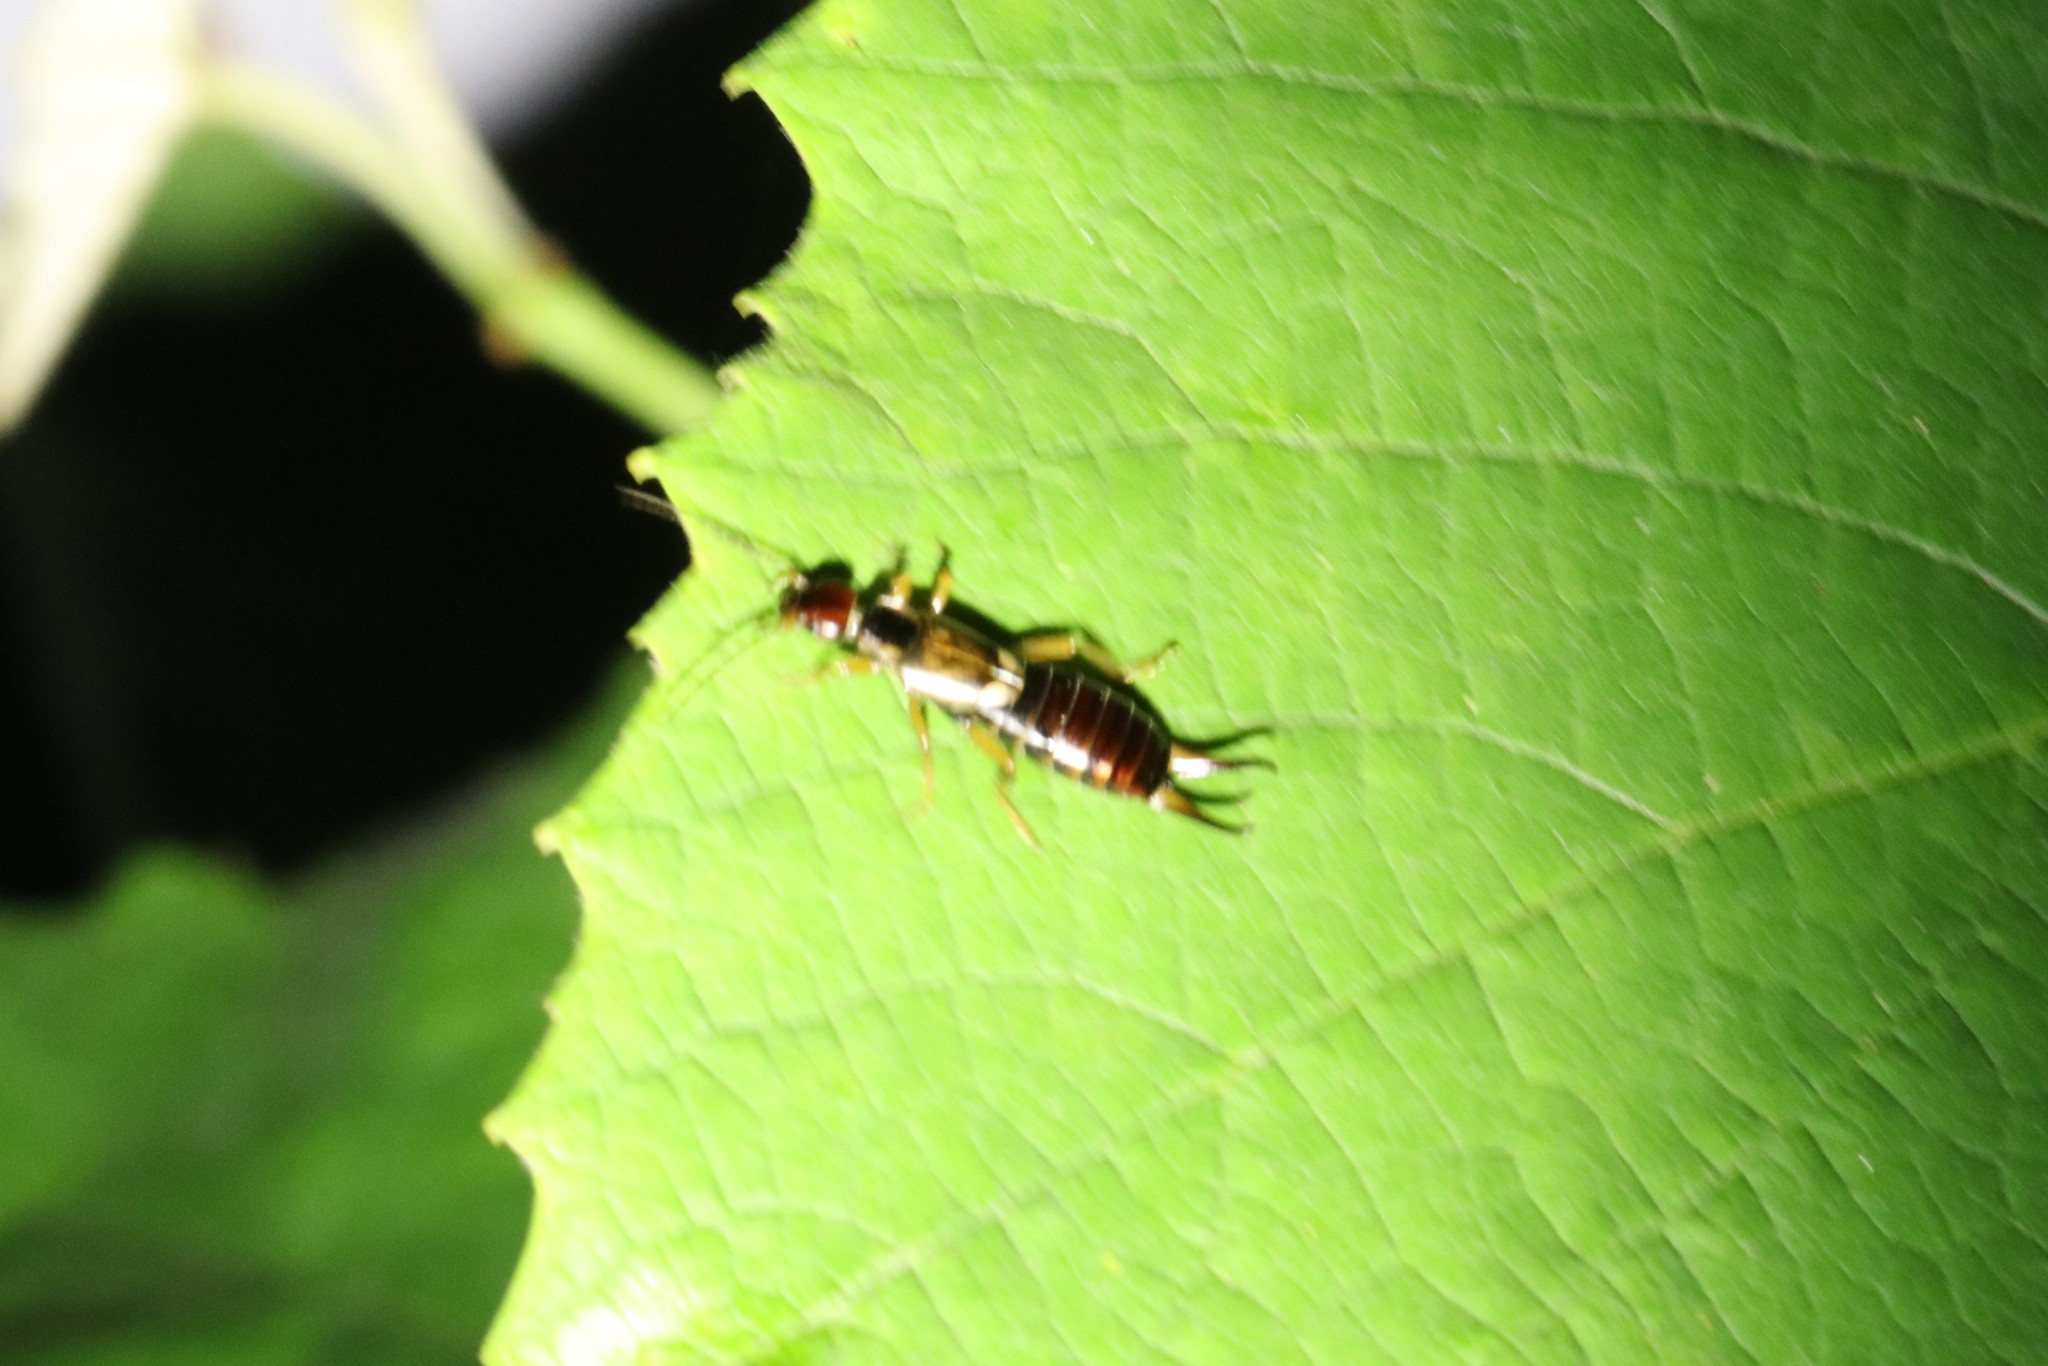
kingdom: Animalia
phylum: Arthropoda
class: Insecta
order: Dermaptera
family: Forficulidae
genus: Forficula
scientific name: Forficula
